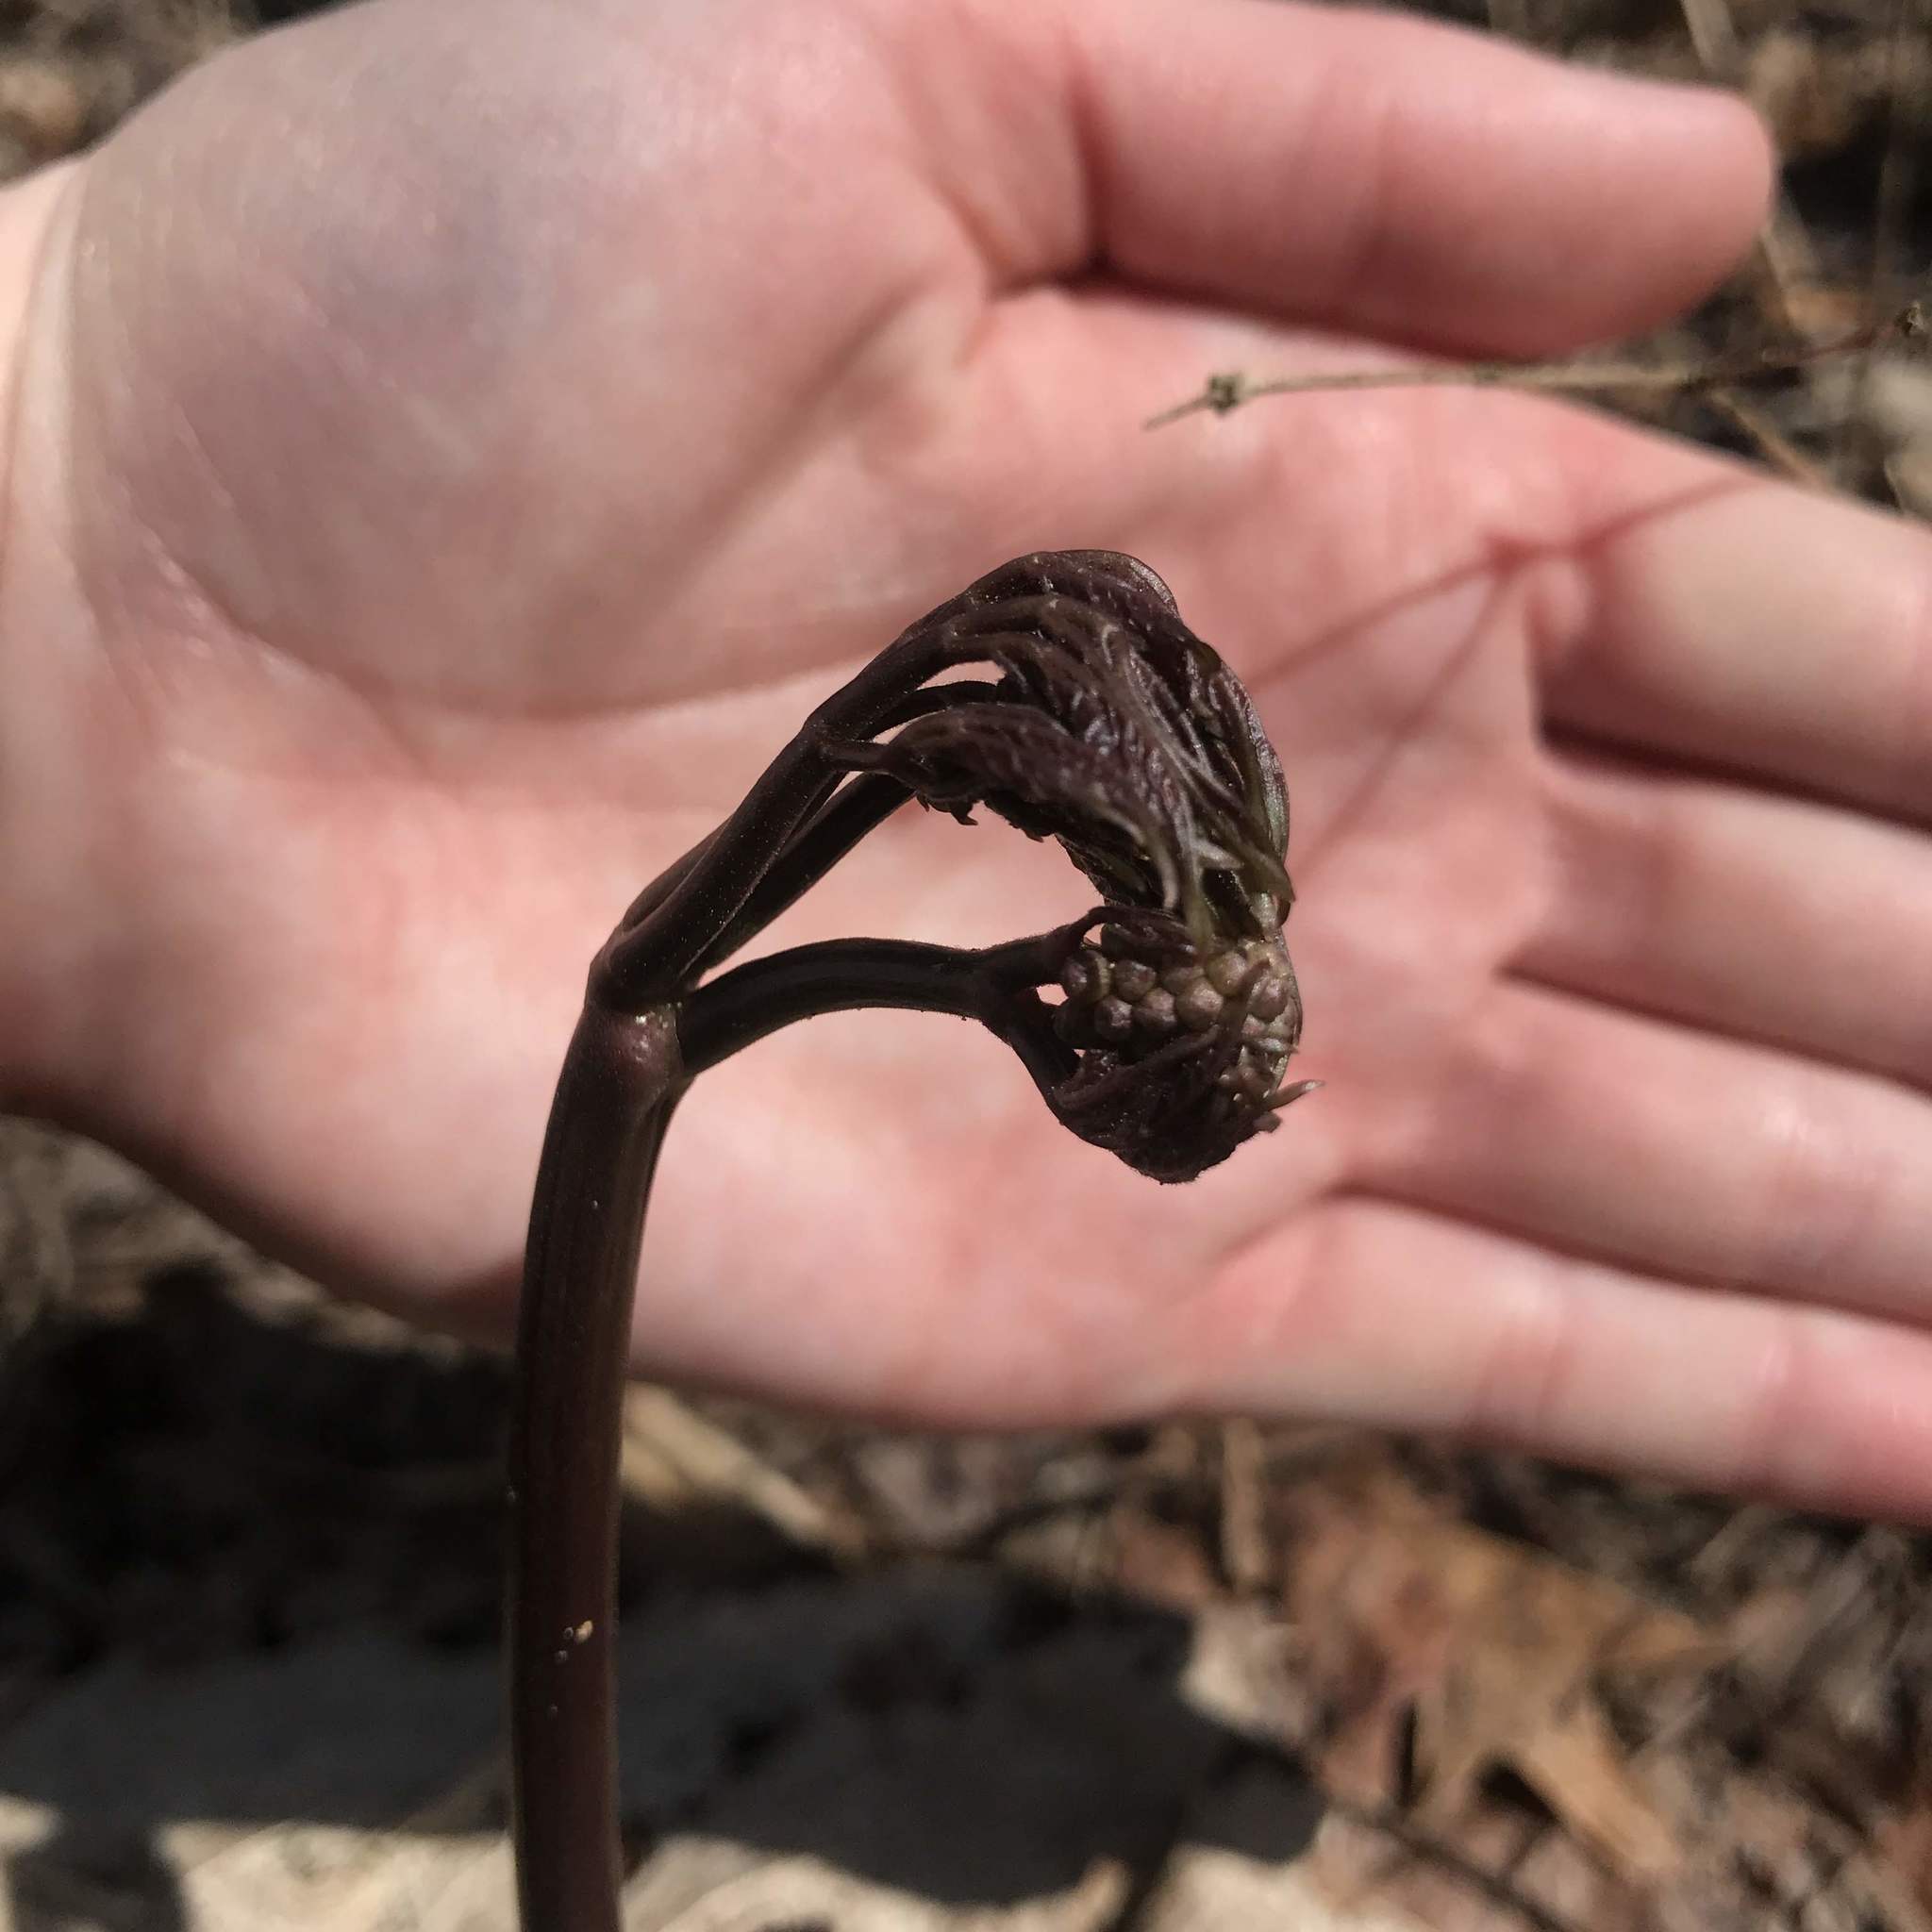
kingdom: Plantae
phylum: Tracheophyta
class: Magnoliopsida
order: Ranunculales
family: Berberidaceae
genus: Caulophyllum
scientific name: Caulophyllum giganteum
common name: Blue cohosh
